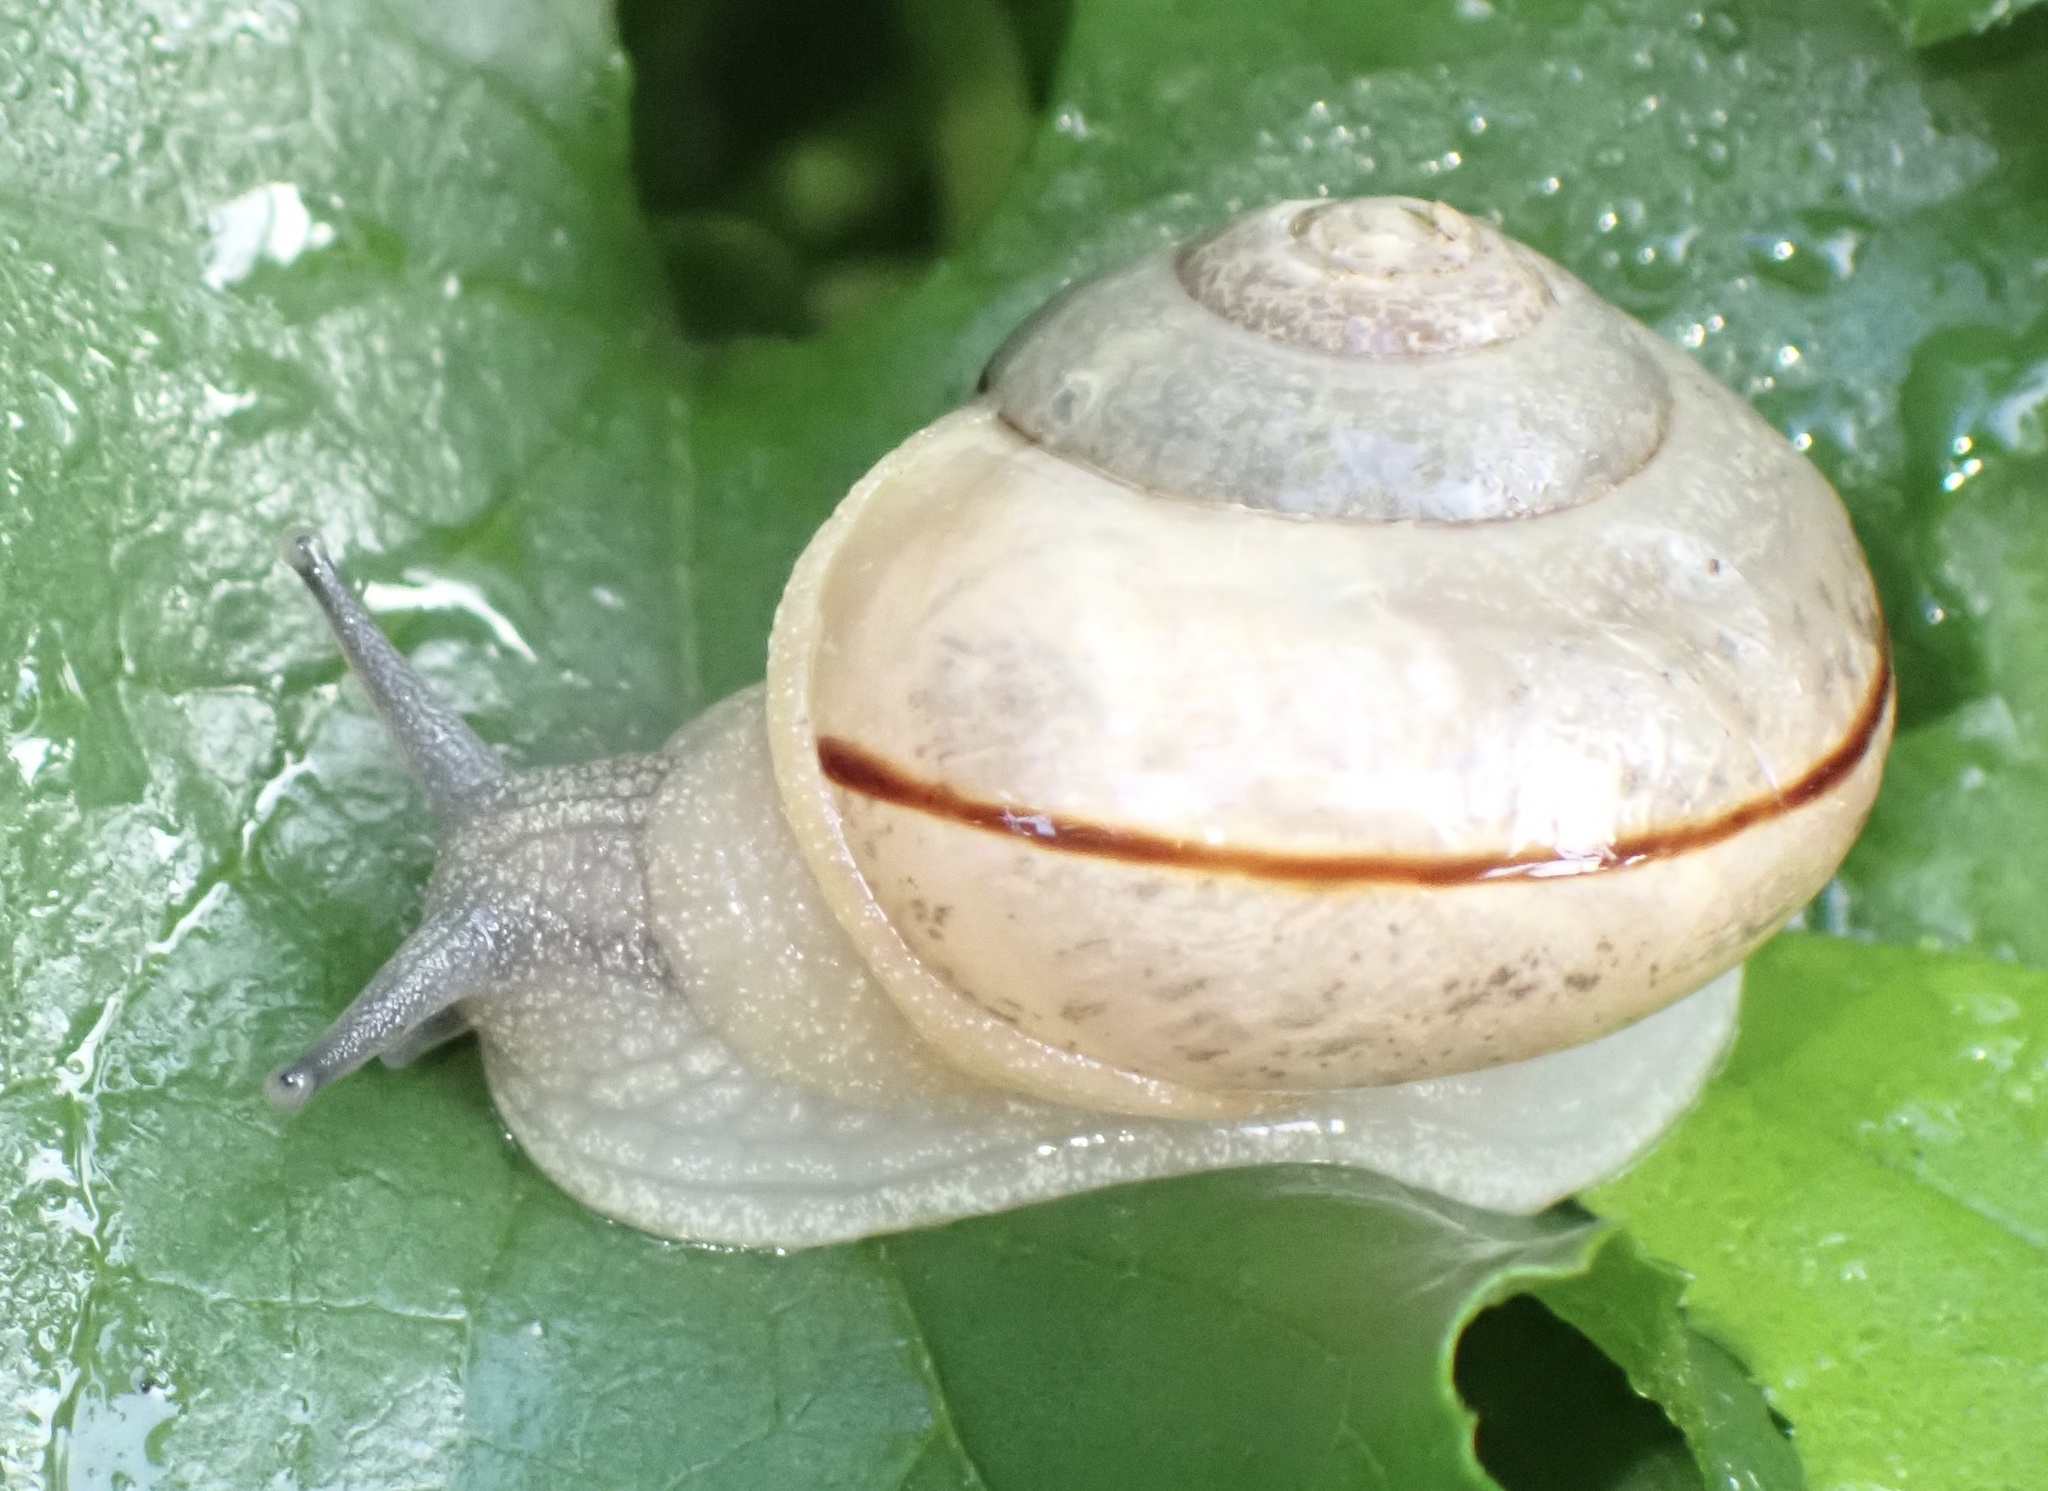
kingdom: Animalia
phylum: Mollusca
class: Gastropoda
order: Stylommatophora
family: Urocyclidae
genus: Kerkophorus
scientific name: Kerkophorus vittarubra
